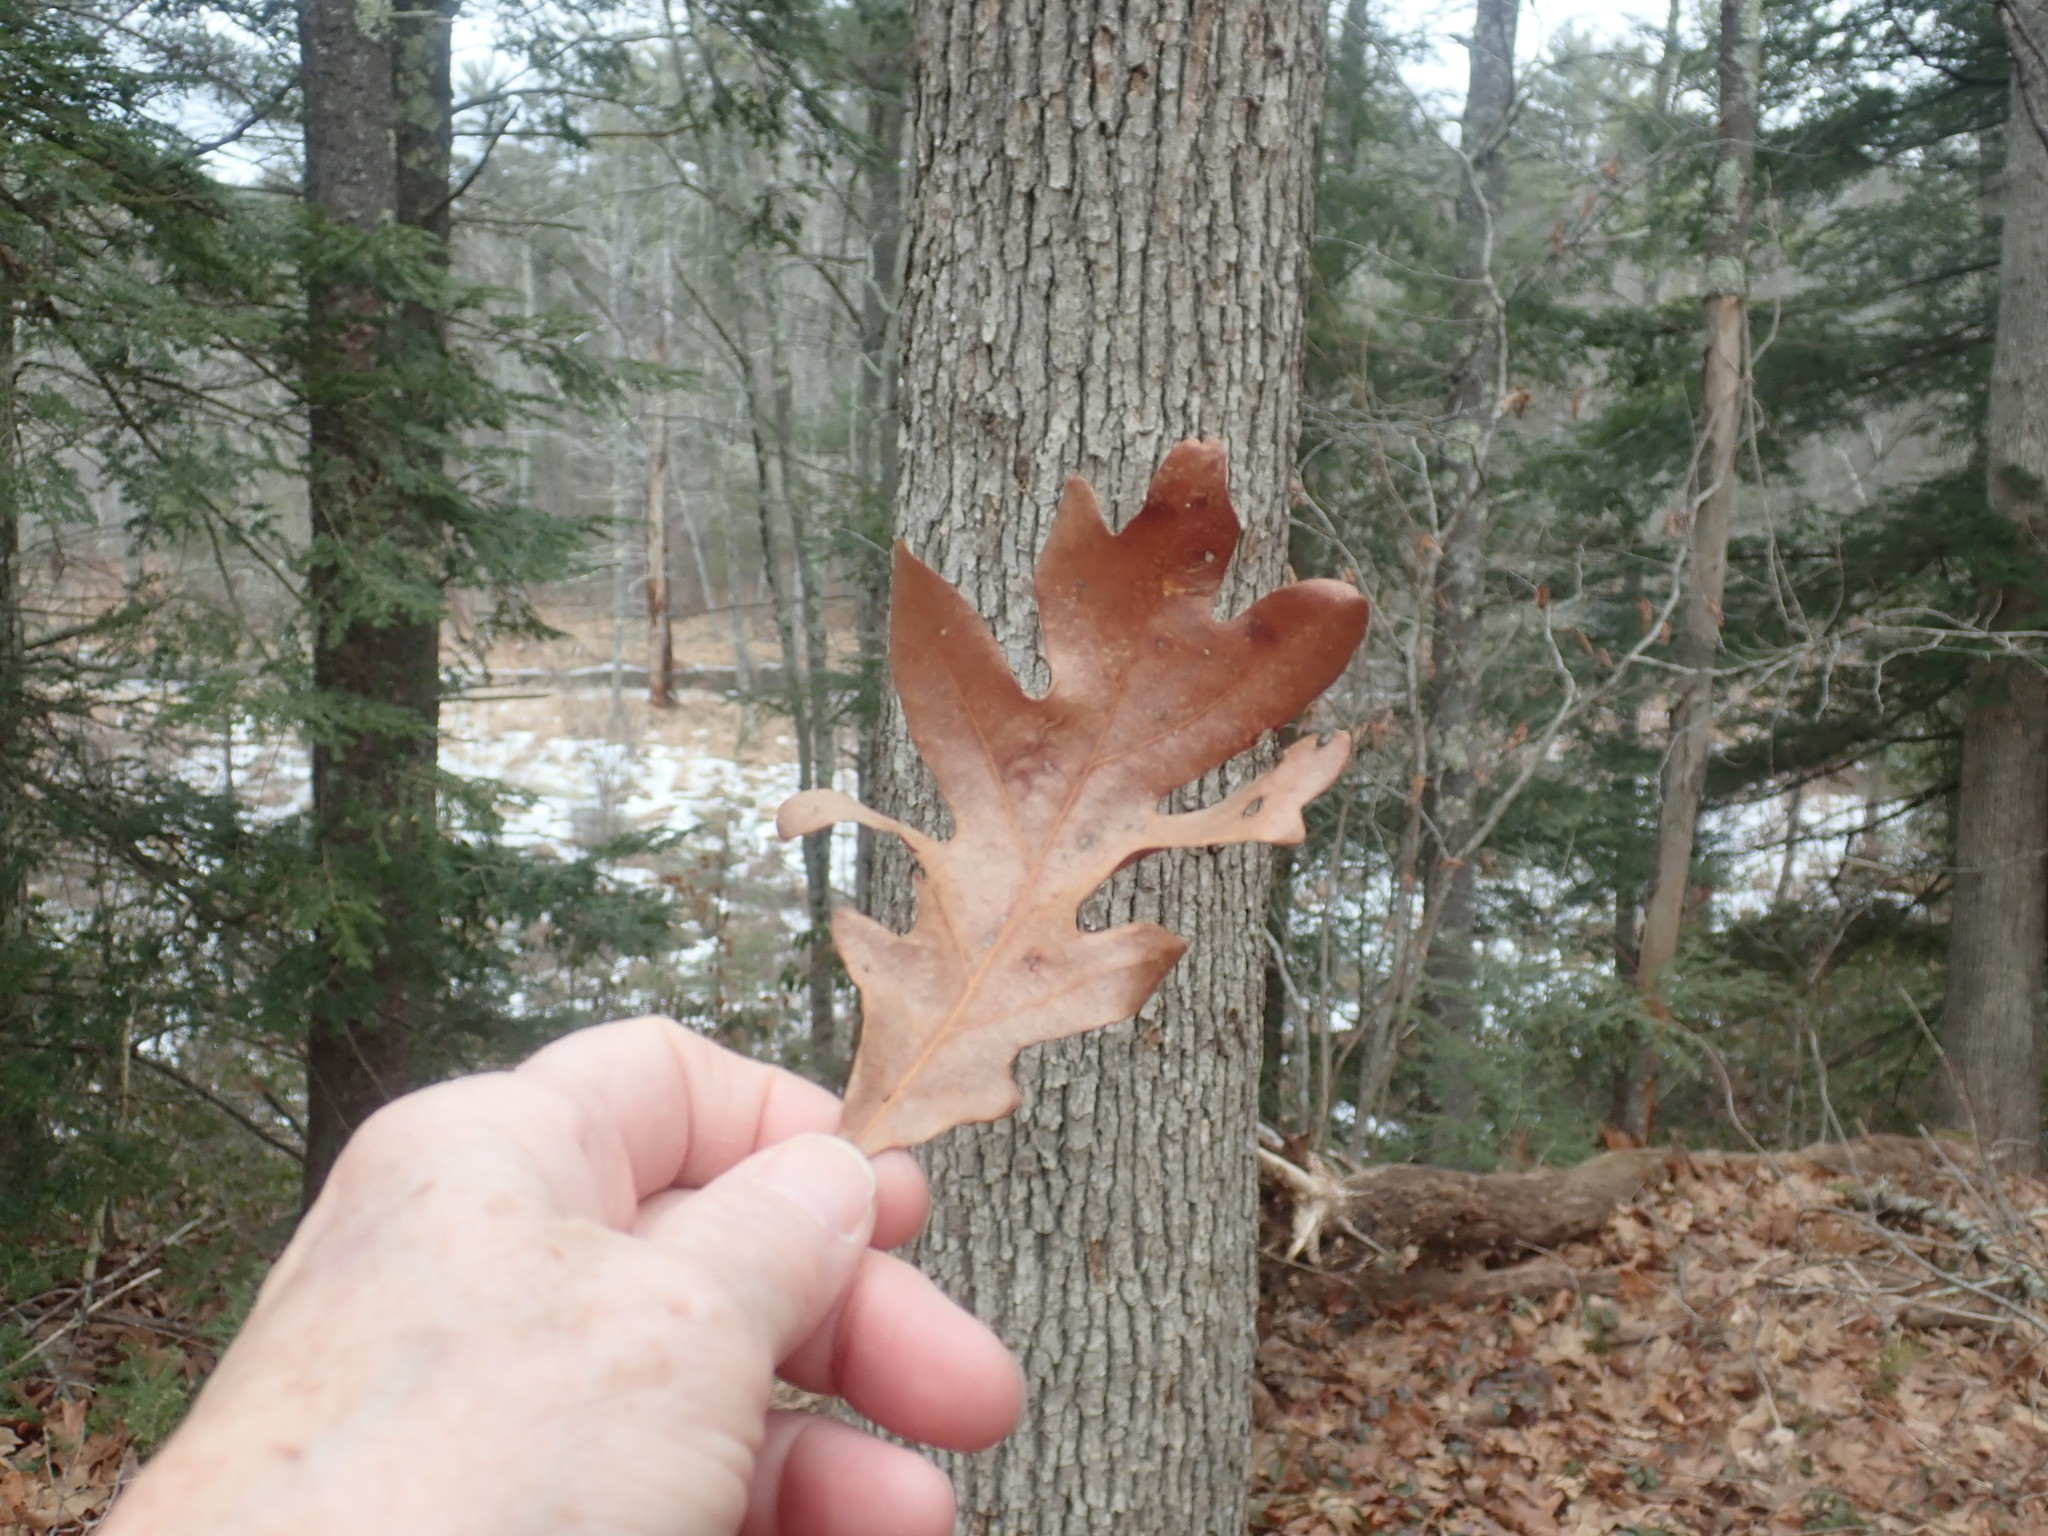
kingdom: Plantae
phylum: Tracheophyta
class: Magnoliopsida
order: Fagales
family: Fagaceae
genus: Quercus
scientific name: Quercus alba
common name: White oak
